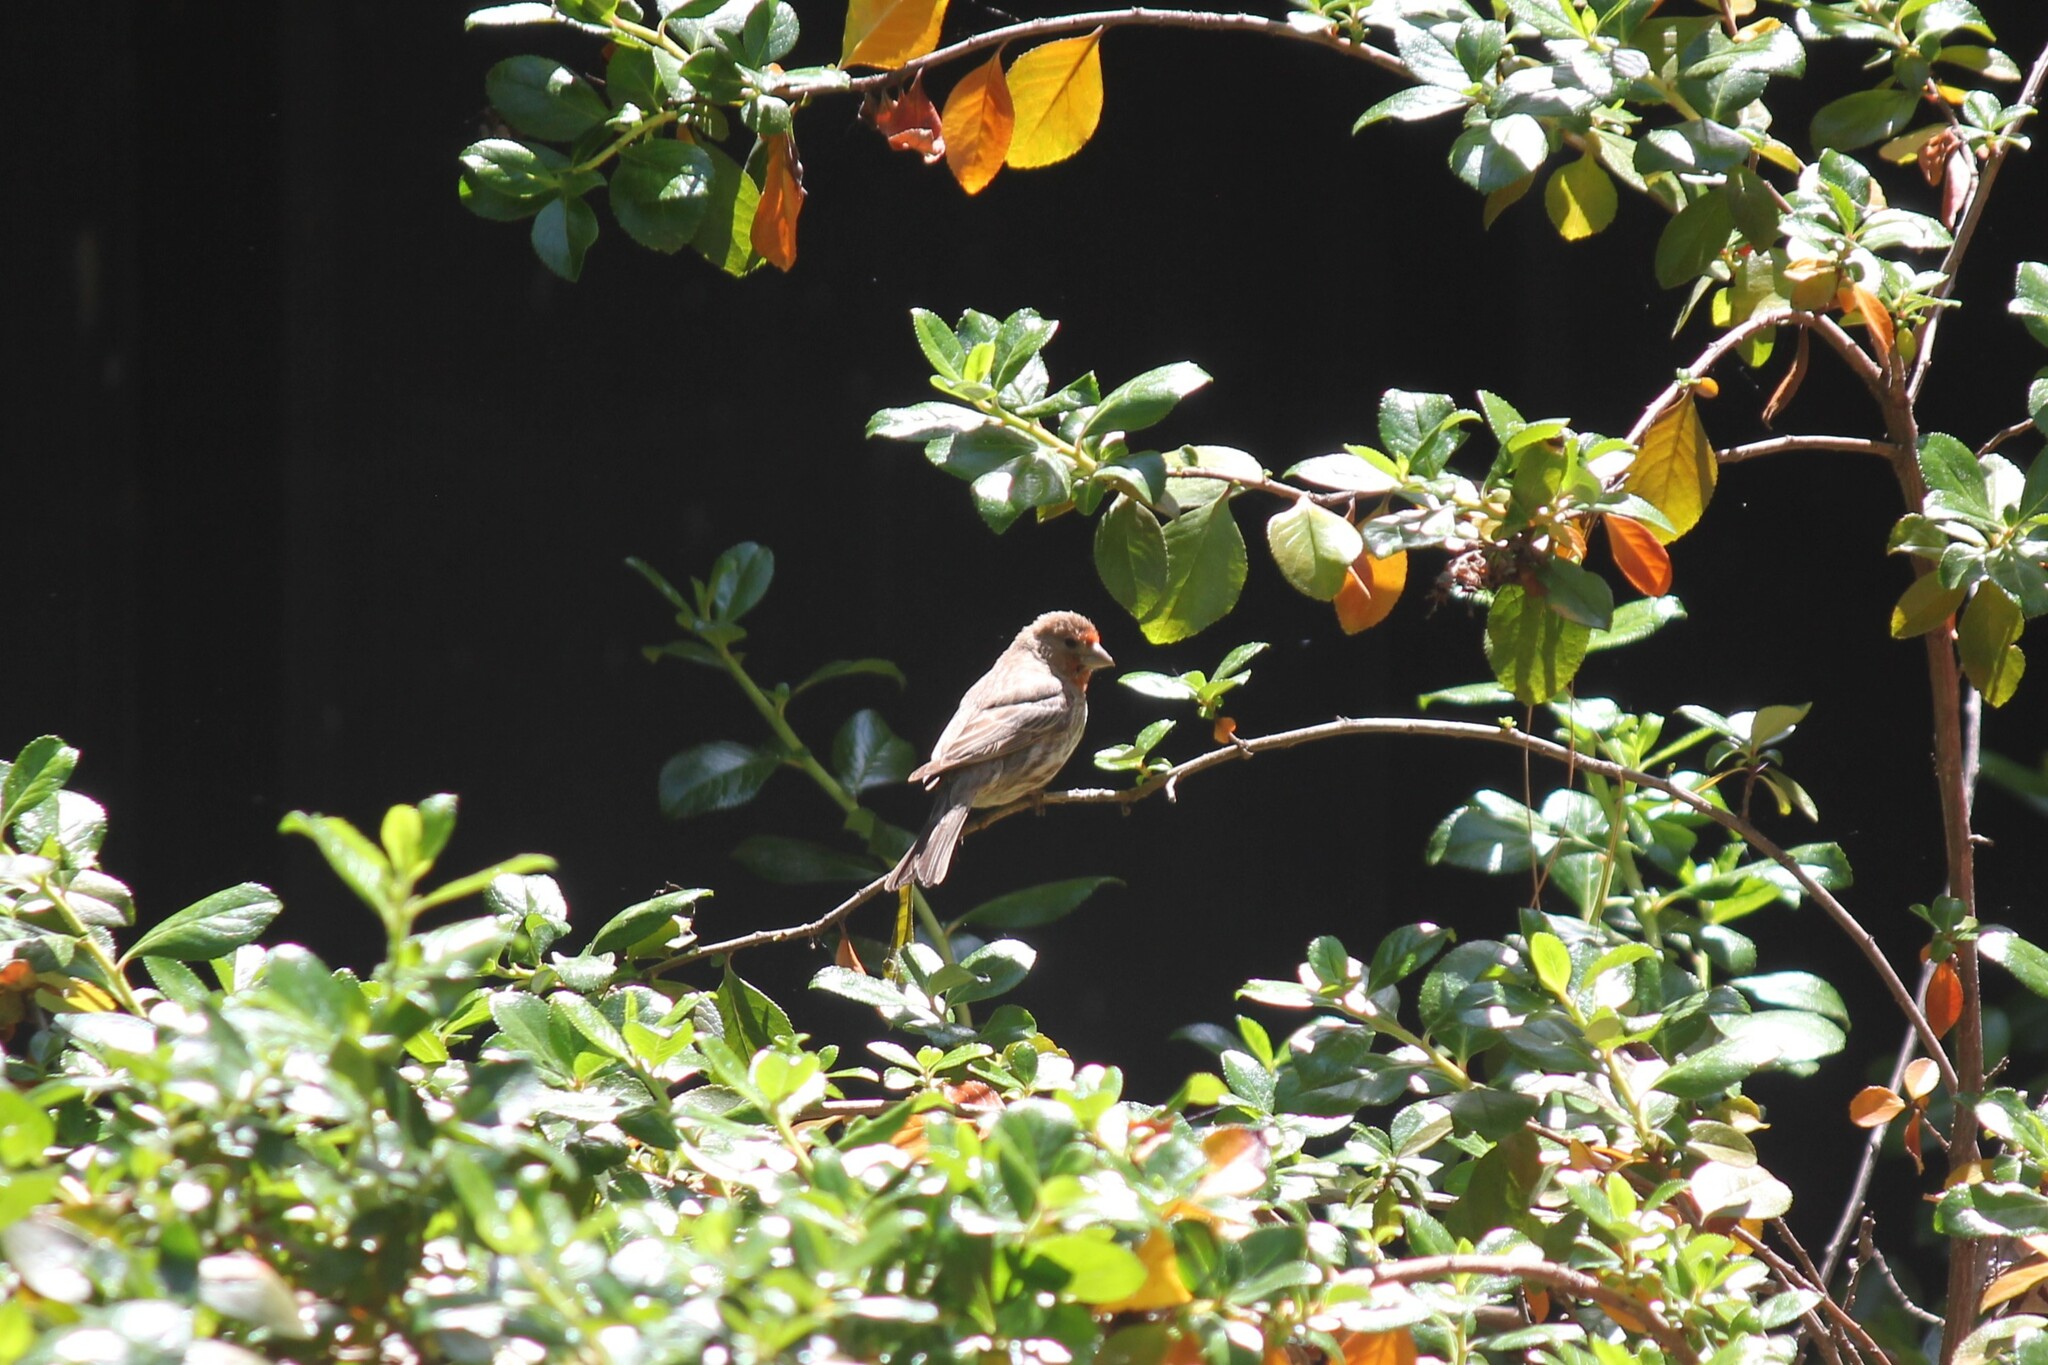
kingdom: Animalia
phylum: Chordata
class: Aves
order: Passeriformes
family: Fringillidae
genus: Haemorhous
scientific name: Haemorhous mexicanus
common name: House finch
